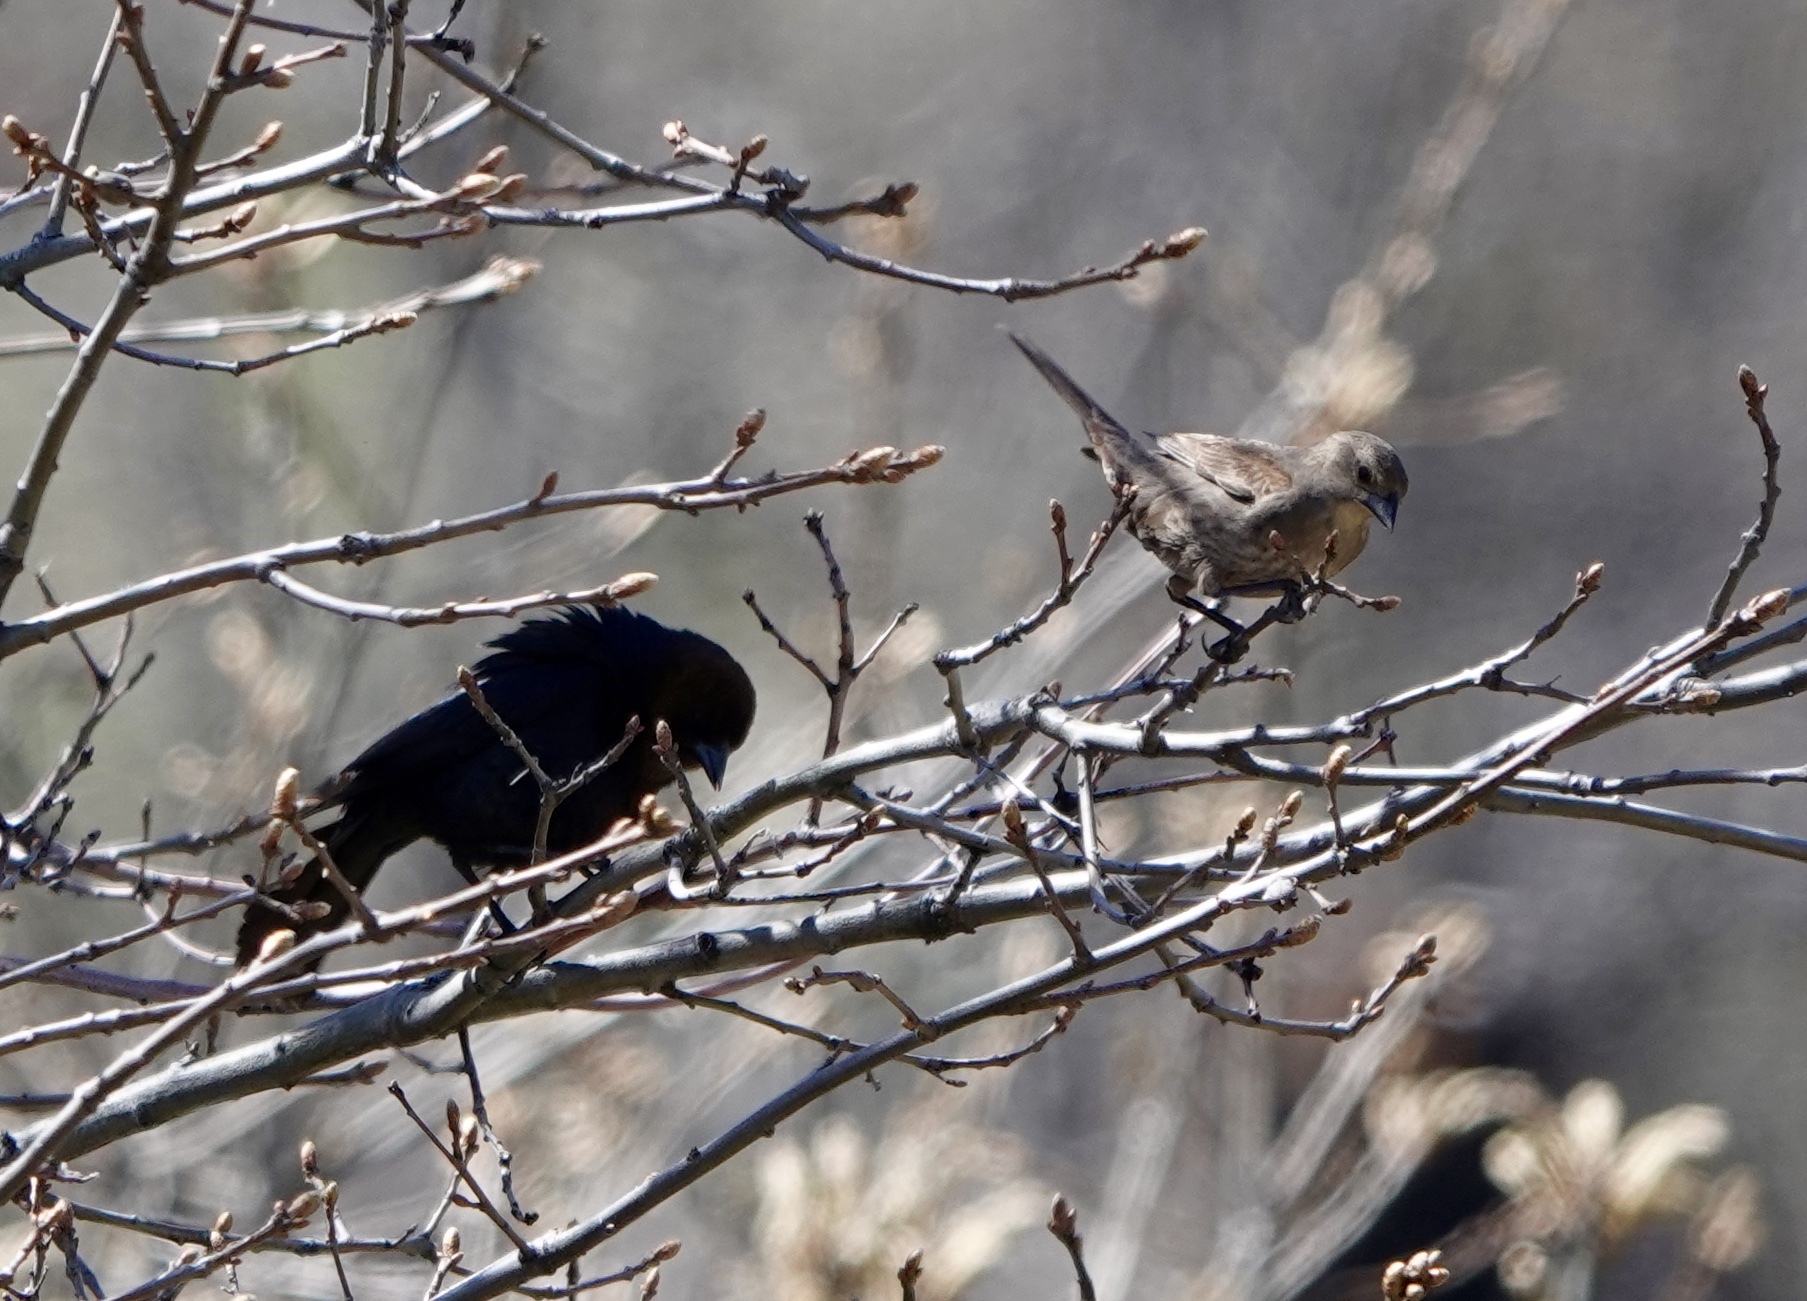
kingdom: Animalia
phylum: Chordata
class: Aves
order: Passeriformes
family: Icteridae
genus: Molothrus
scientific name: Molothrus ater
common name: Brown-headed cowbird
